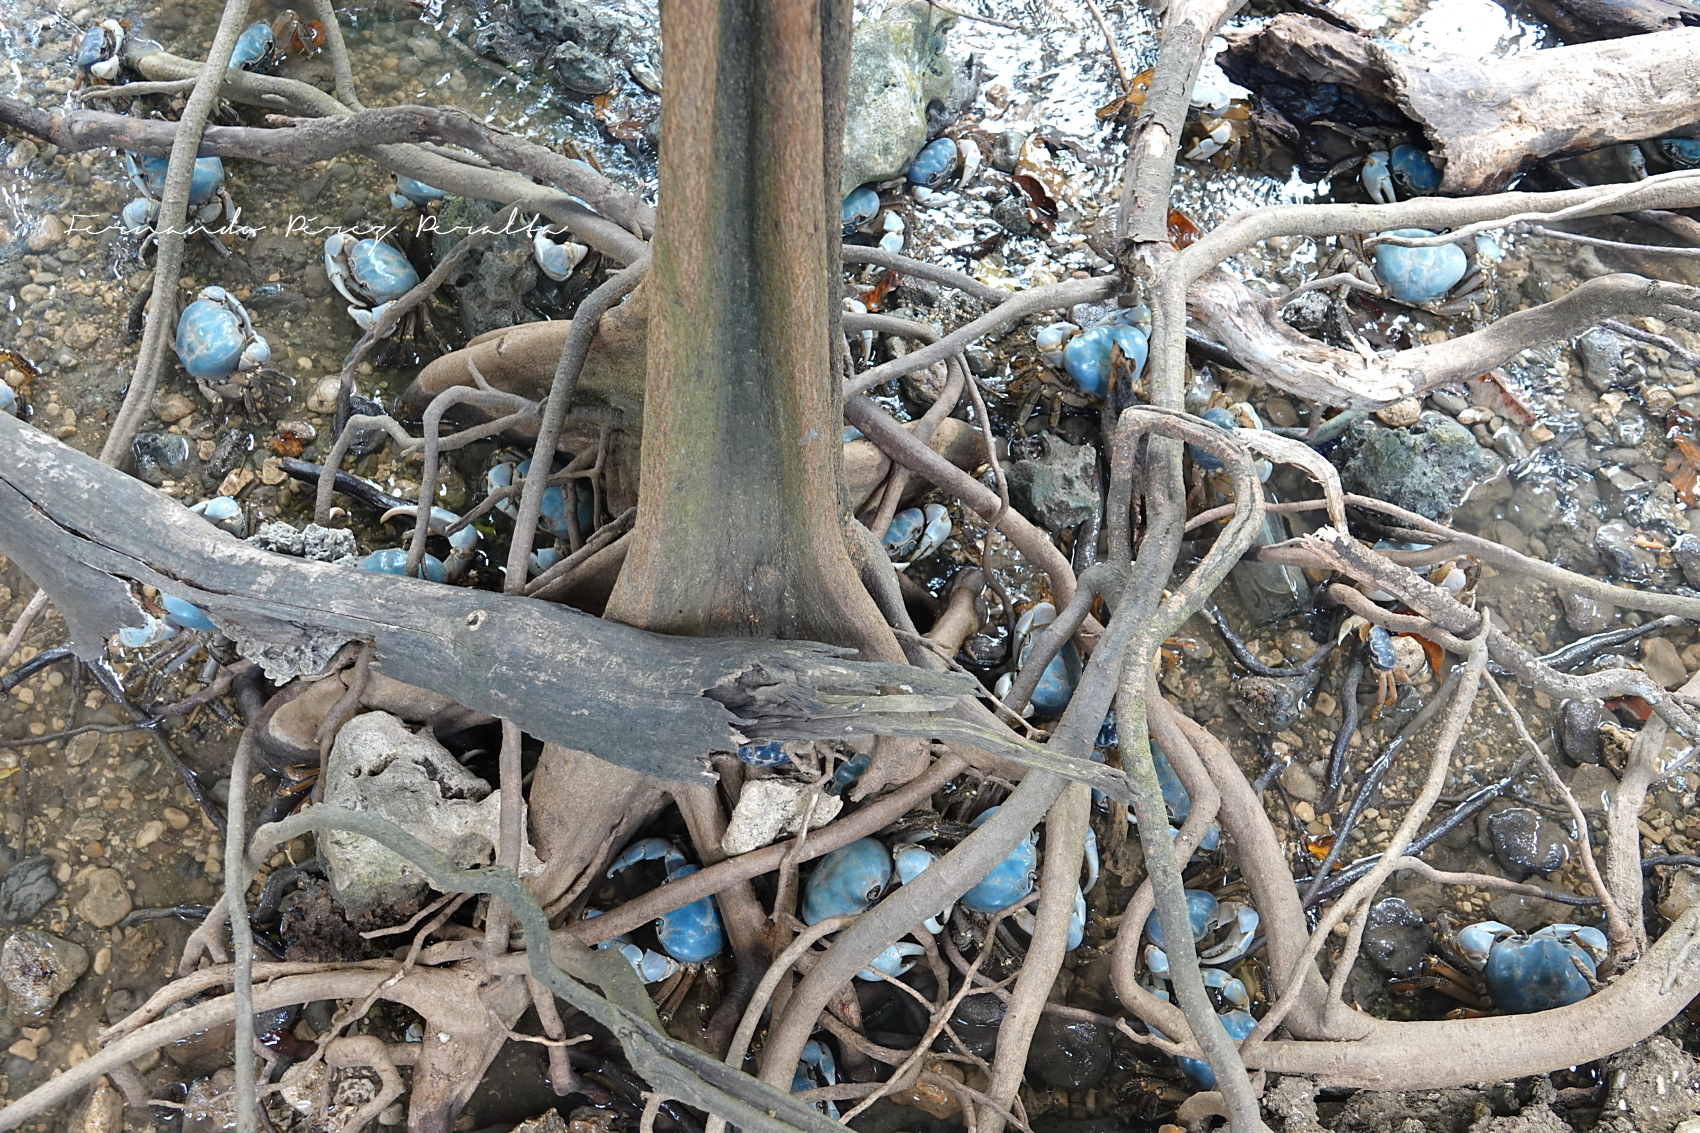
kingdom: Animalia
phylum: Arthropoda
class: Malacostraca
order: Decapoda
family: Gecarcinidae
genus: Tuerkayana
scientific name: Tuerkayana celeste
